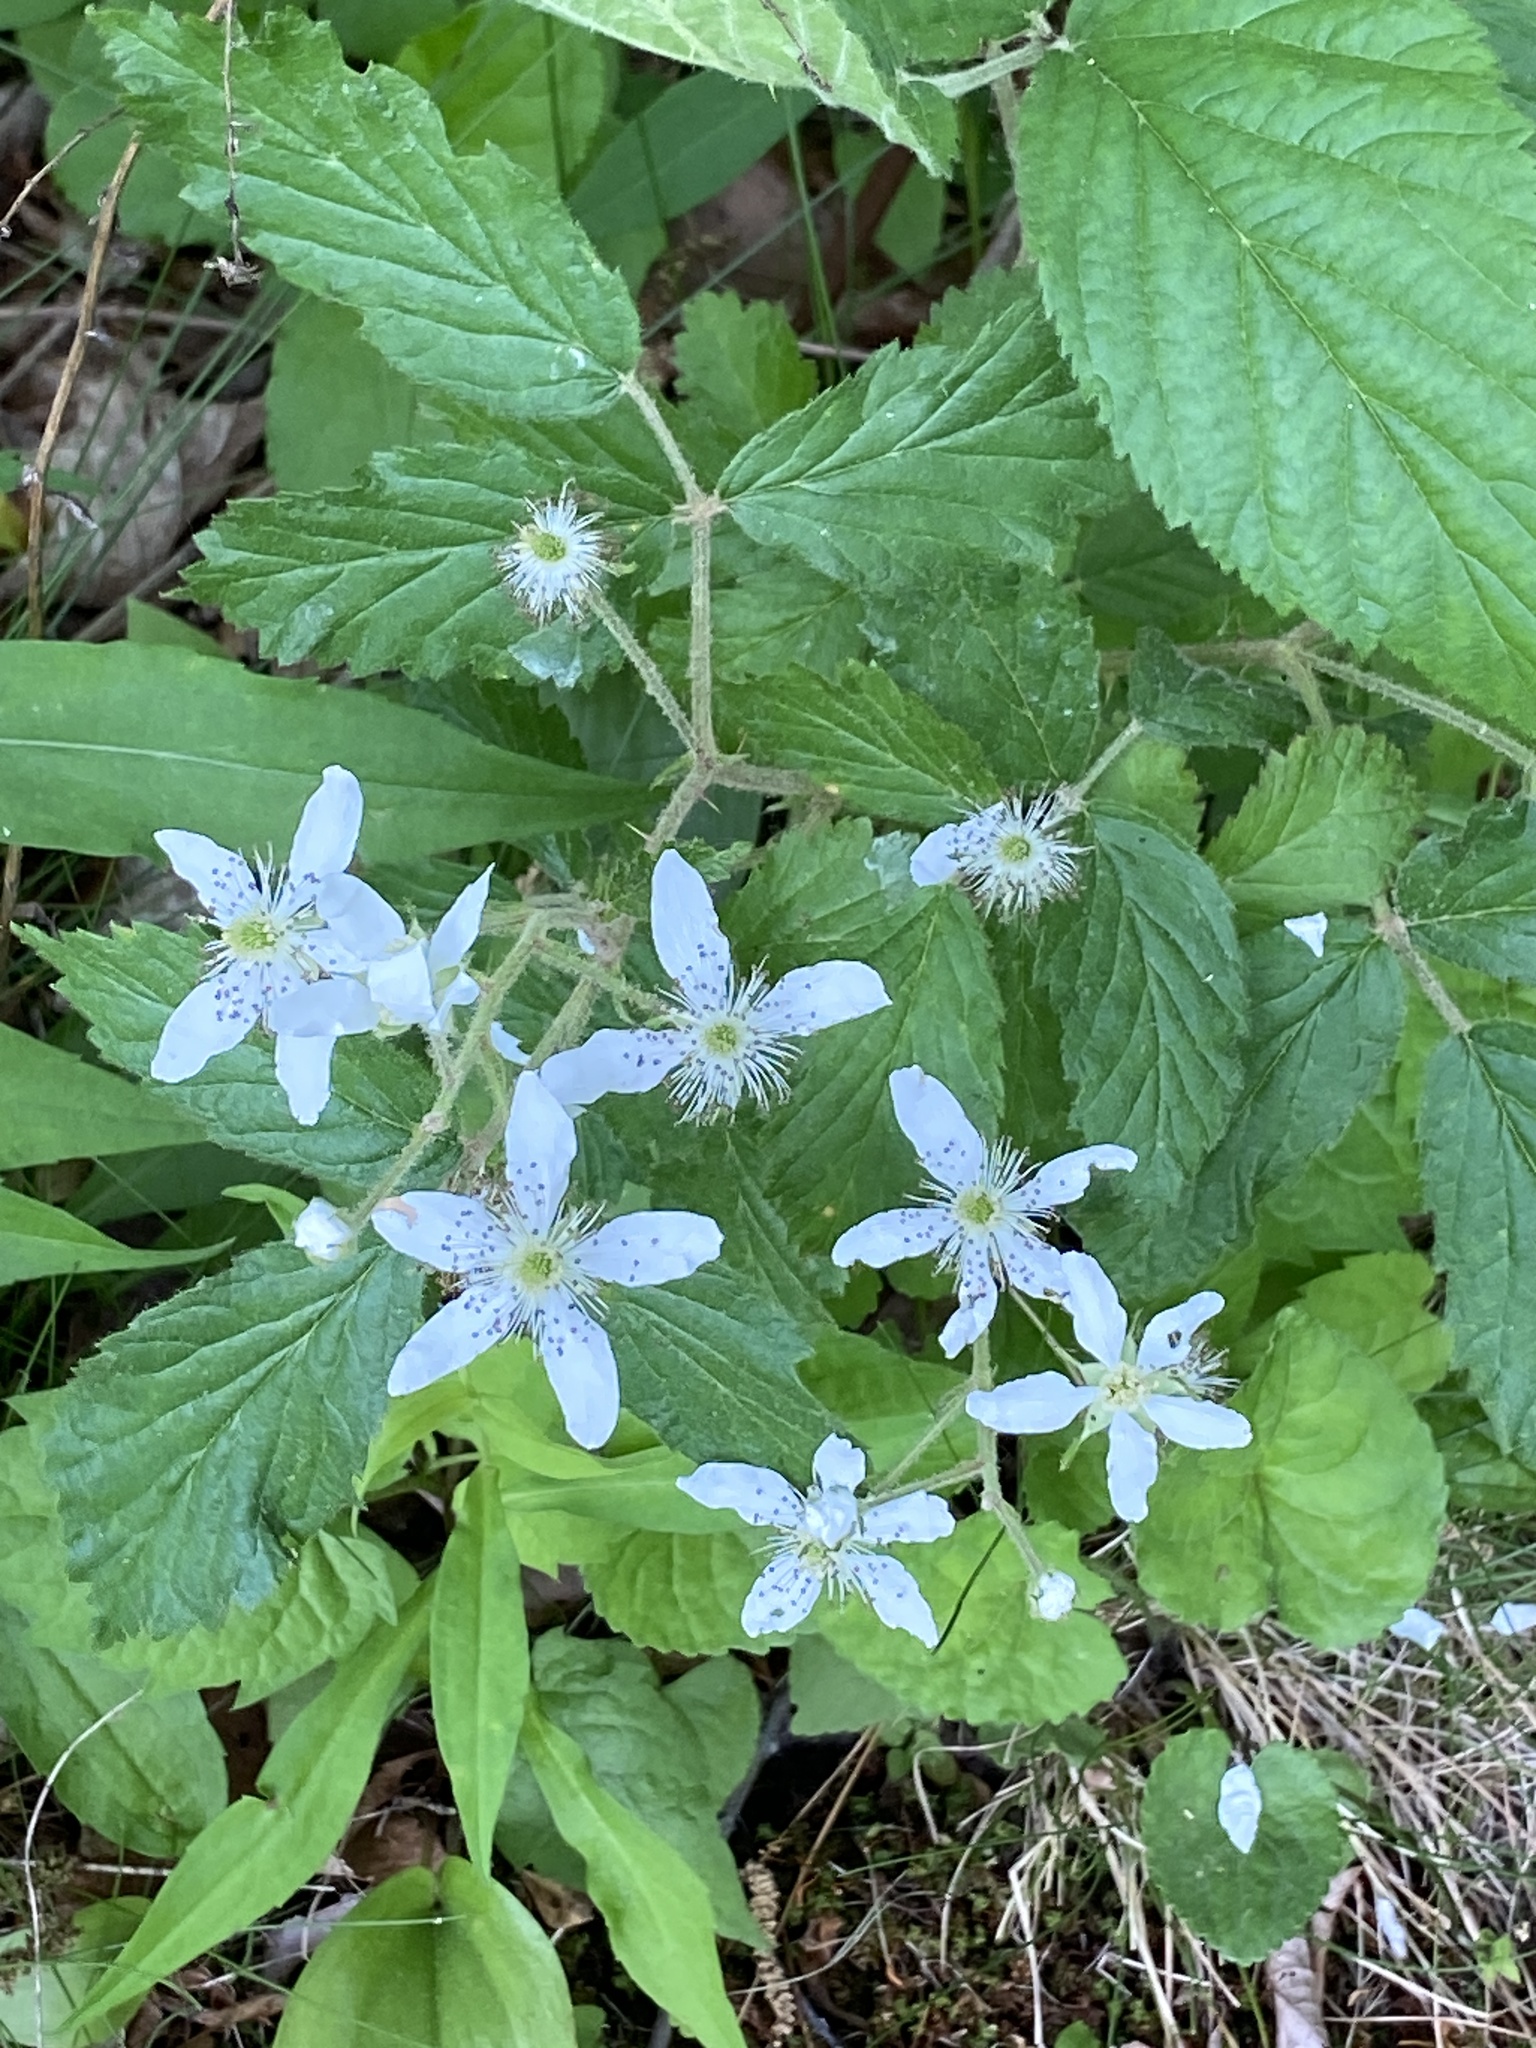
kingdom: Plantae
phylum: Tracheophyta
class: Magnoliopsida
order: Rosales
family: Rosaceae
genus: Rubus
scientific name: Rubus allegheniensis
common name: Allegheny blackberry
